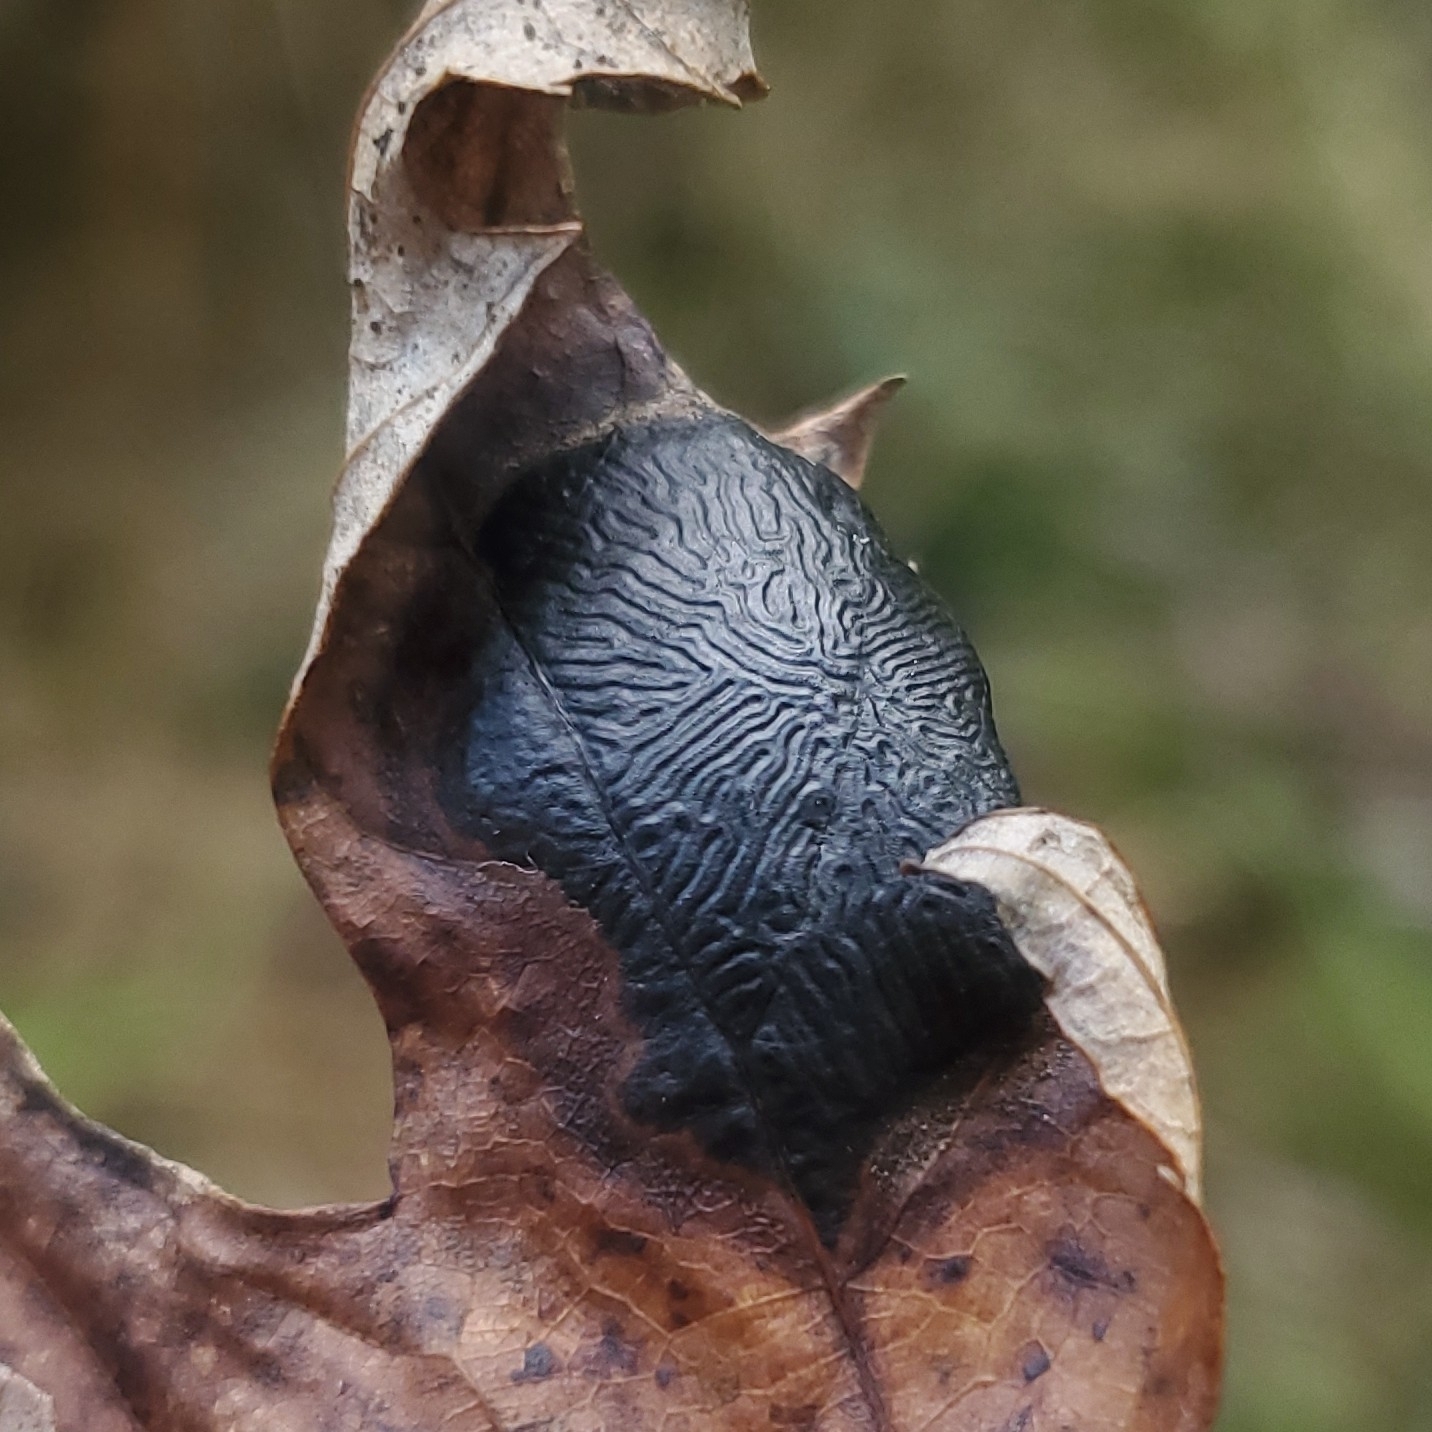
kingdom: Fungi
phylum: Ascomycota
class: Leotiomycetes
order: Rhytismatales
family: Rhytismataceae
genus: Rhytisma
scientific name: Rhytisma americanum
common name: American tar spot
